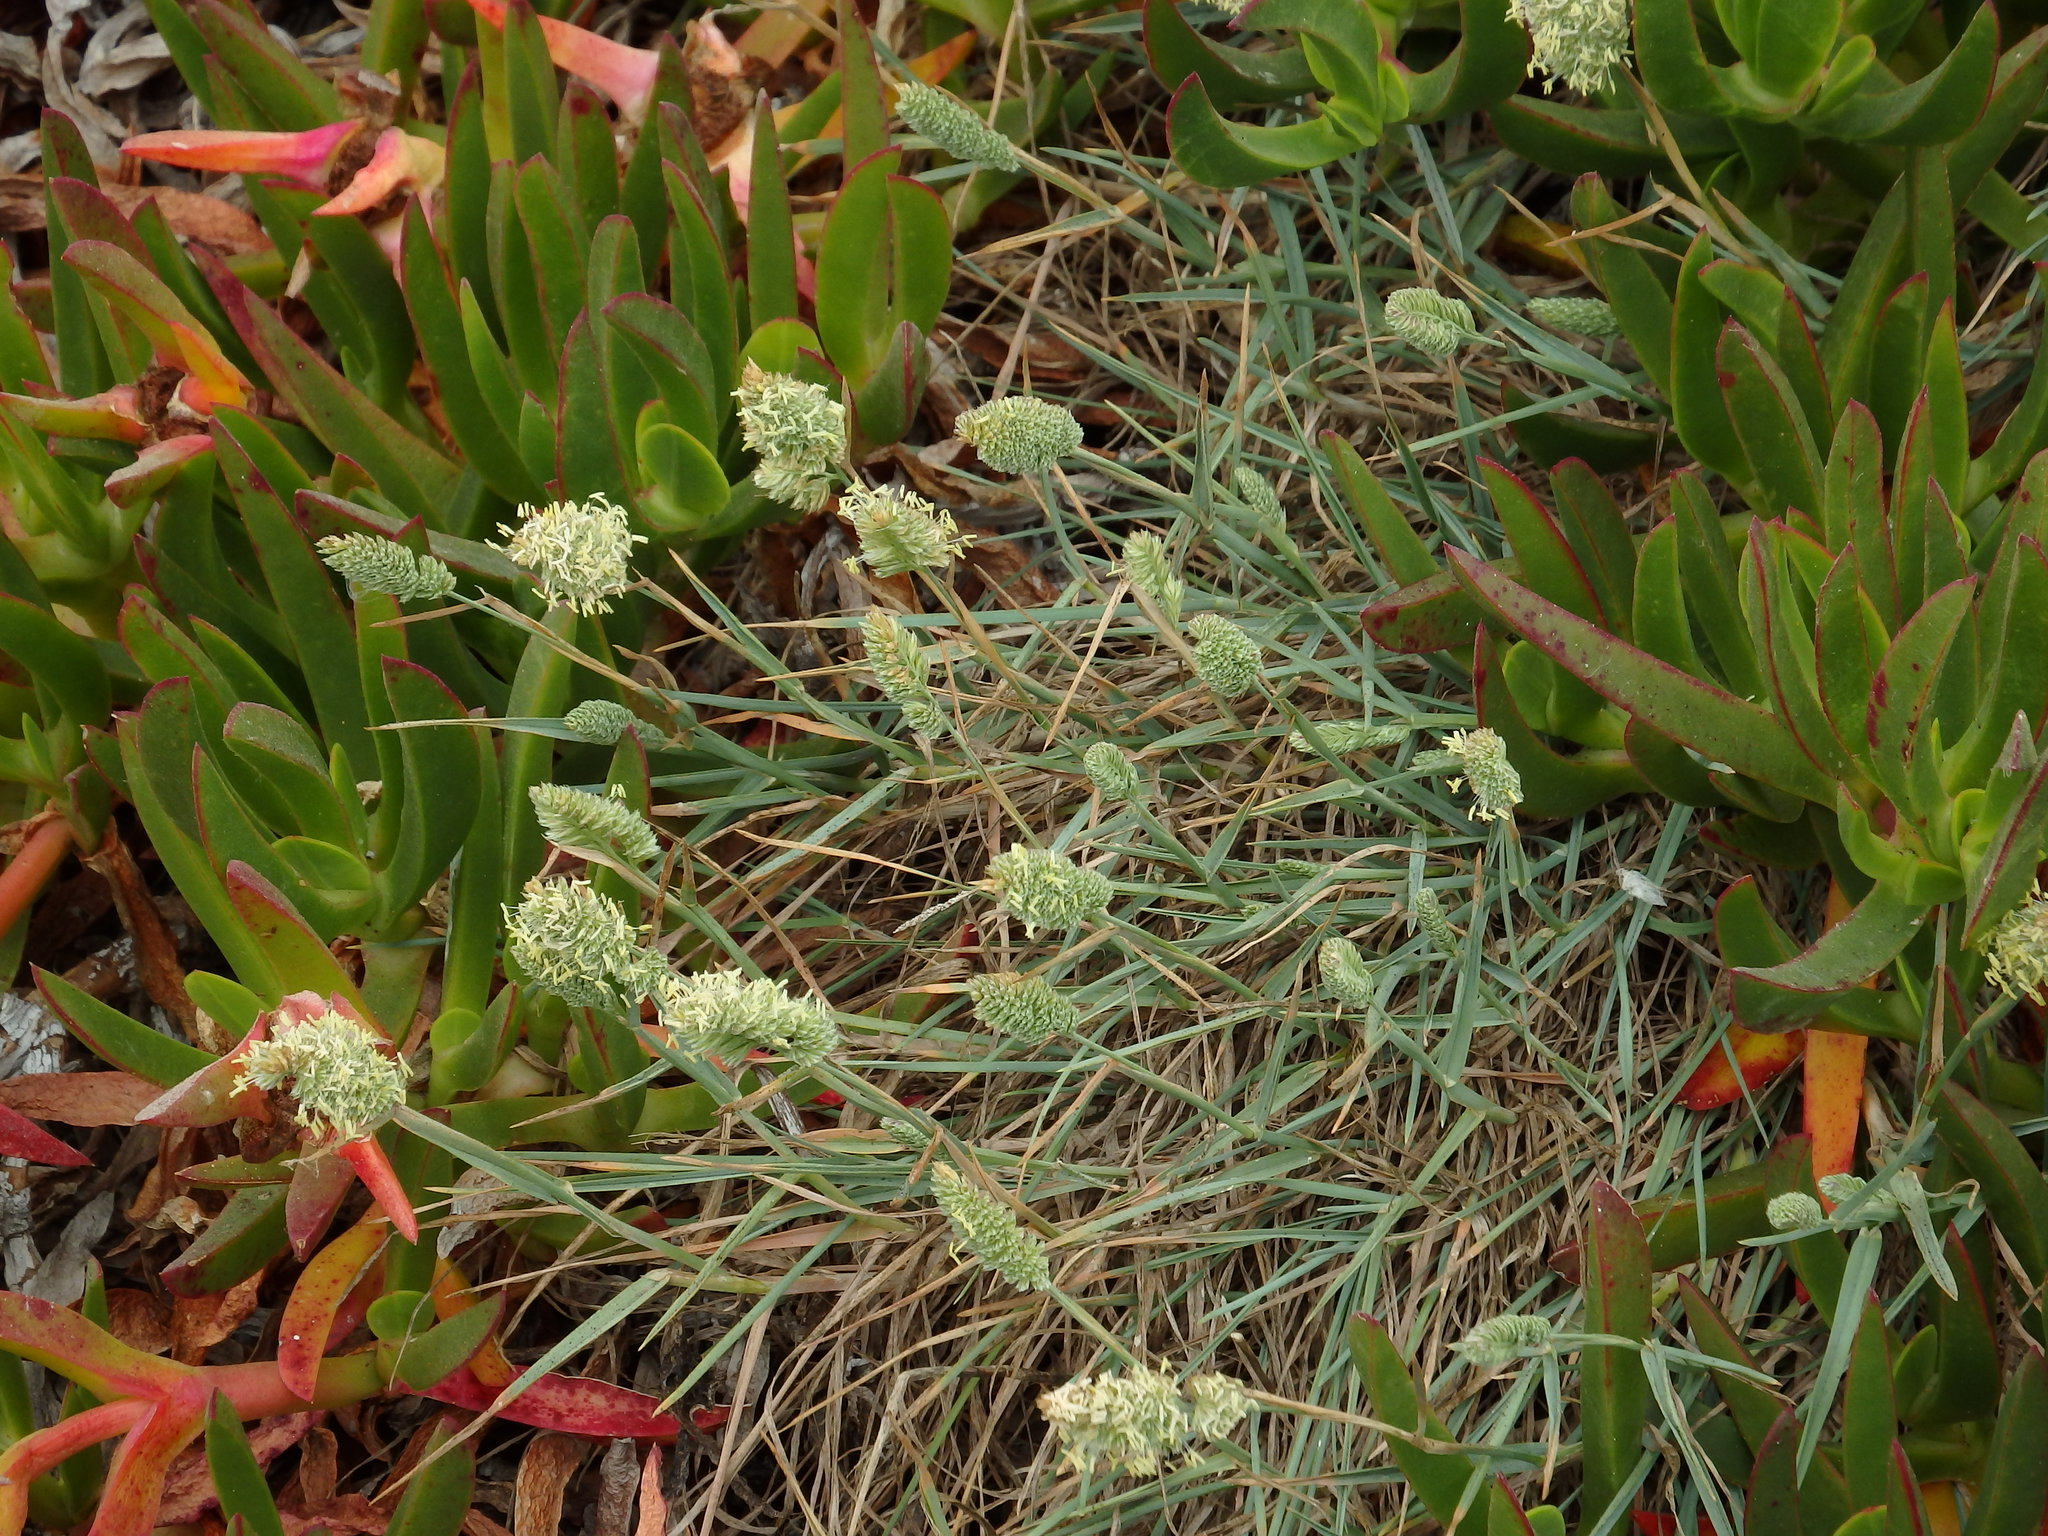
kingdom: Plantae
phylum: Tracheophyta
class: Liliopsida
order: Poales
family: Poaceae
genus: Dactylis
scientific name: Dactylis glomerata
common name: Orchardgrass
